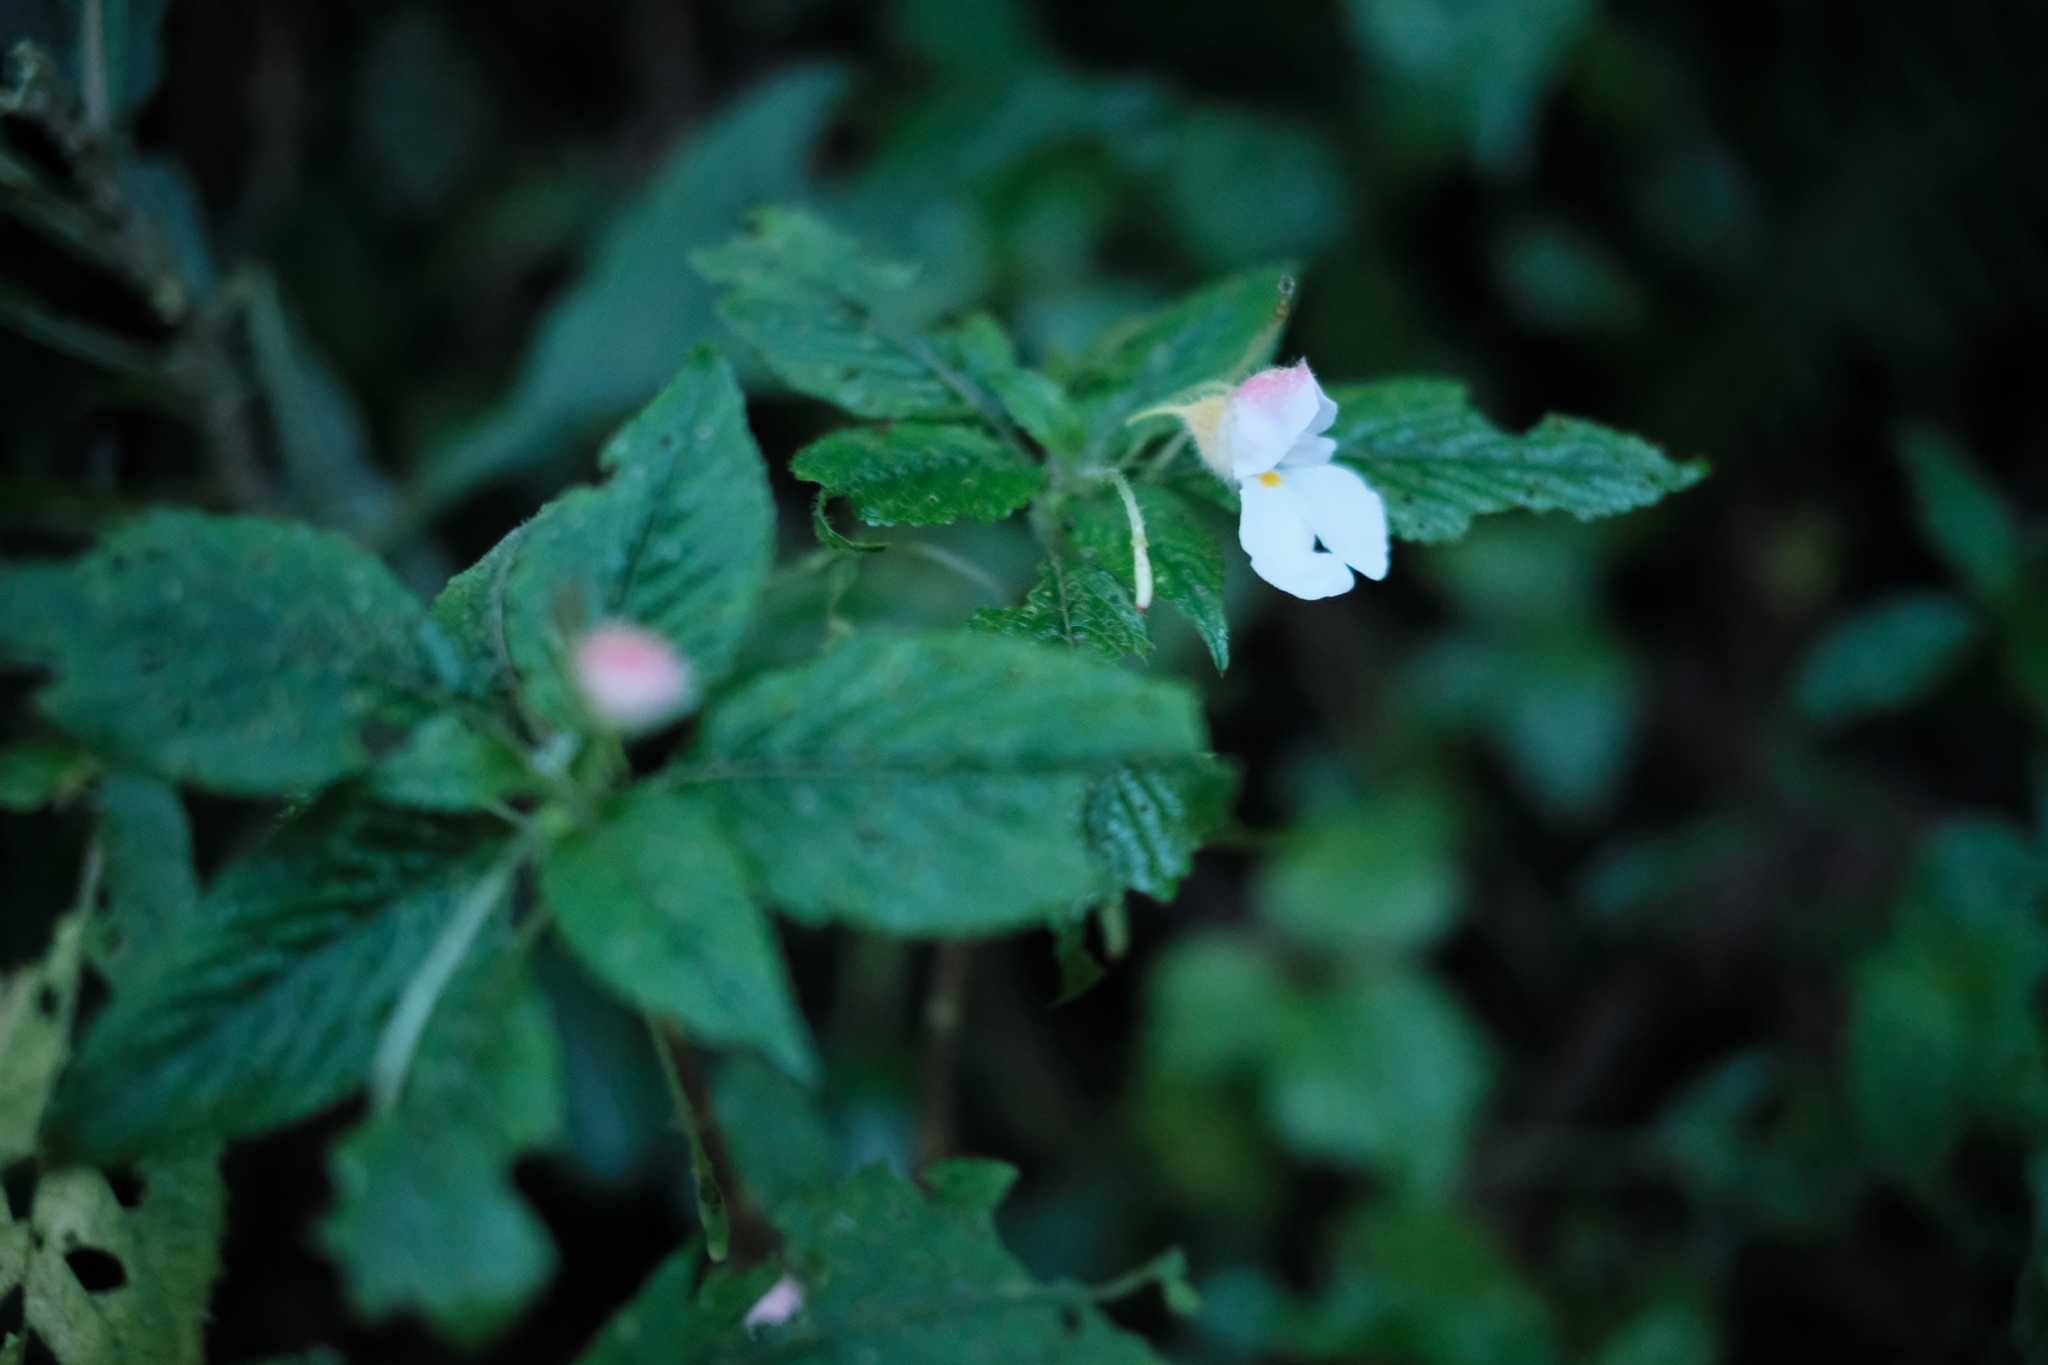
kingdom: Plantae
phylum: Tracheophyta
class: Magnoliopsida
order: Ericales
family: Balsaminaceae
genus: Impatiens
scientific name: Impatiens burtonii
